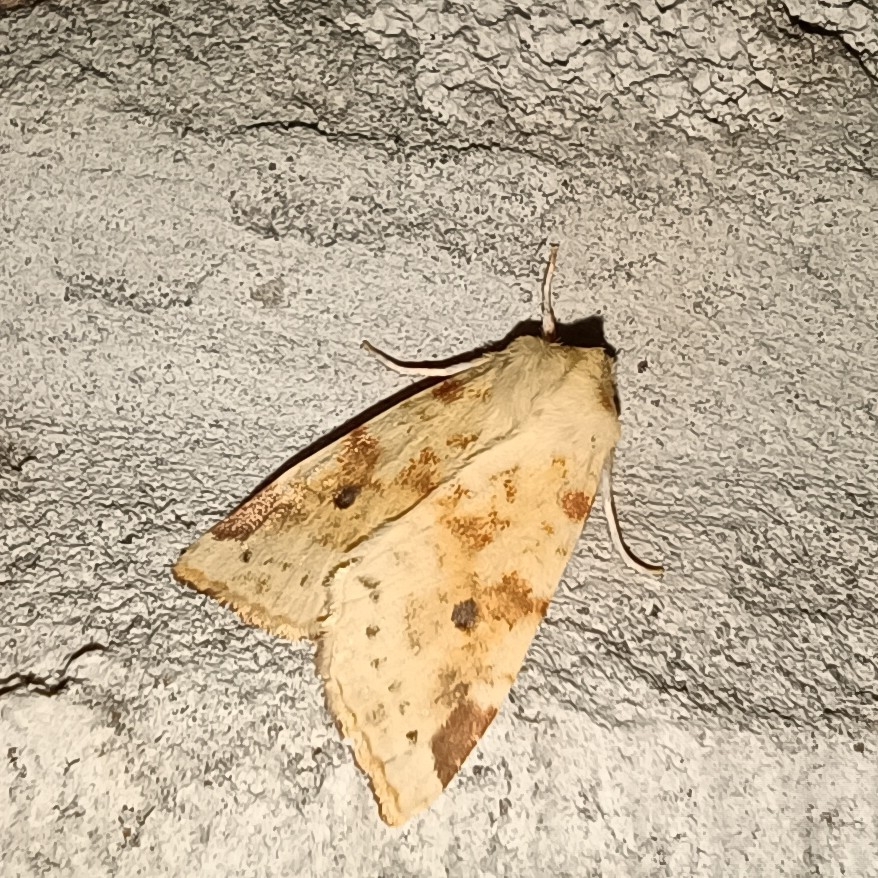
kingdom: Animalia
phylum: Arthropoda
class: Insecta
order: Lepidoptera
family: Noctuidae
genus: Xanthia
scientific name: Xanthia icteritia
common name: The sallow
